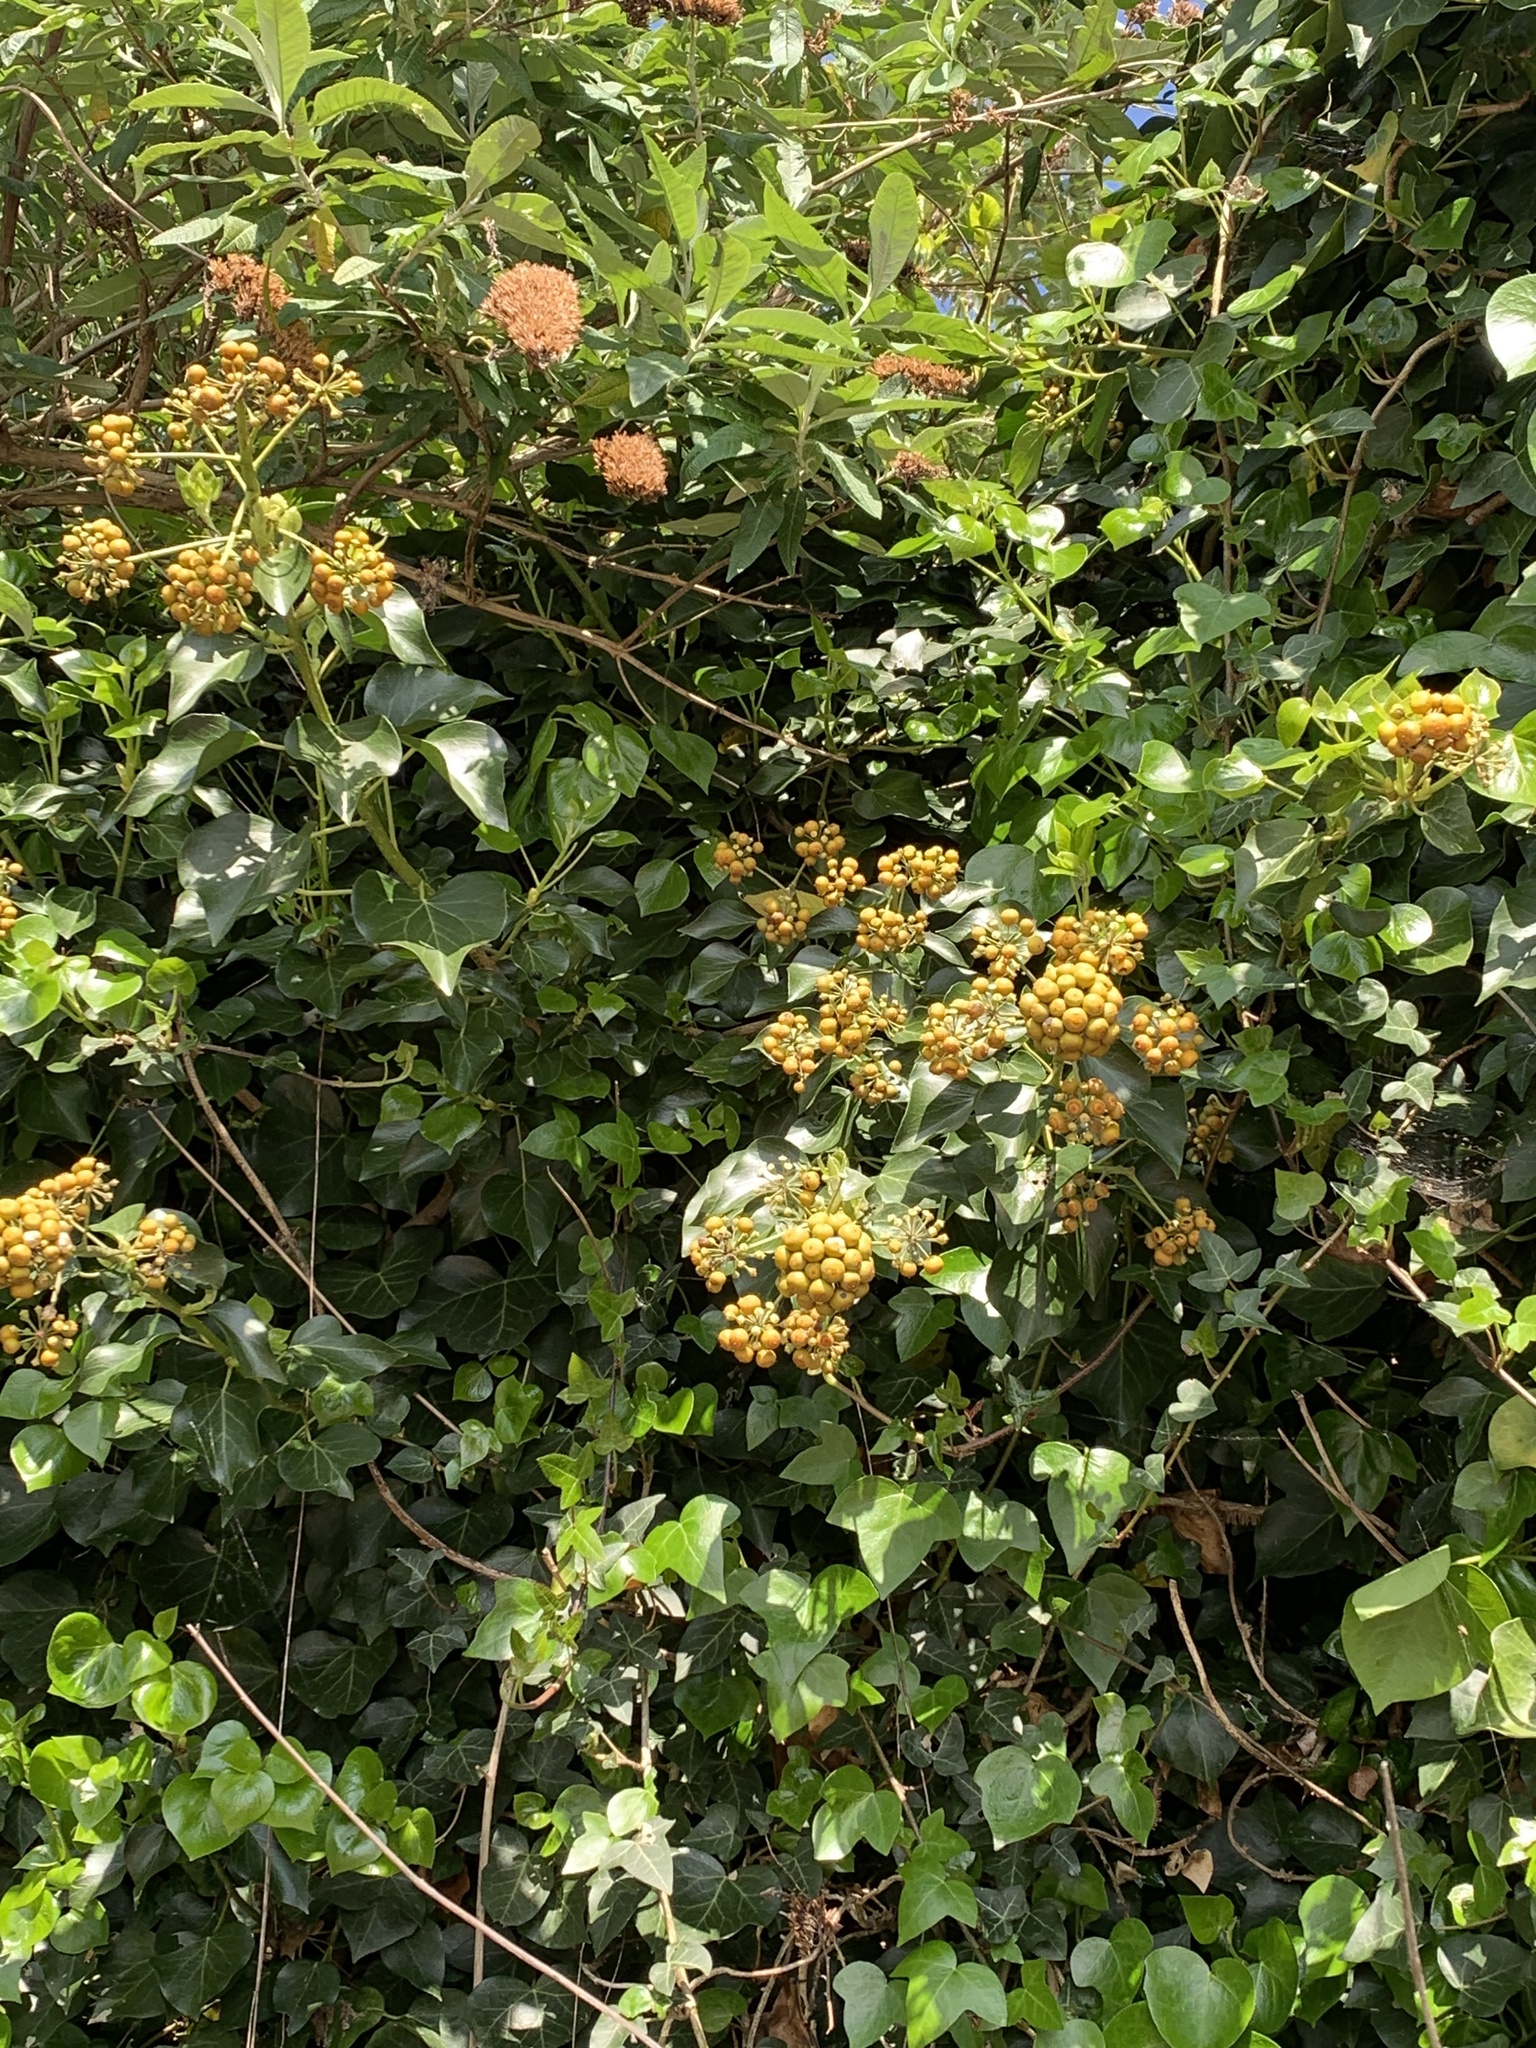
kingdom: Plantae
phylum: Tracheophyta
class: Magnoliopsida
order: Apiales
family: Araliaceae
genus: Hedera
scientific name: Hedera helix
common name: Ivy
